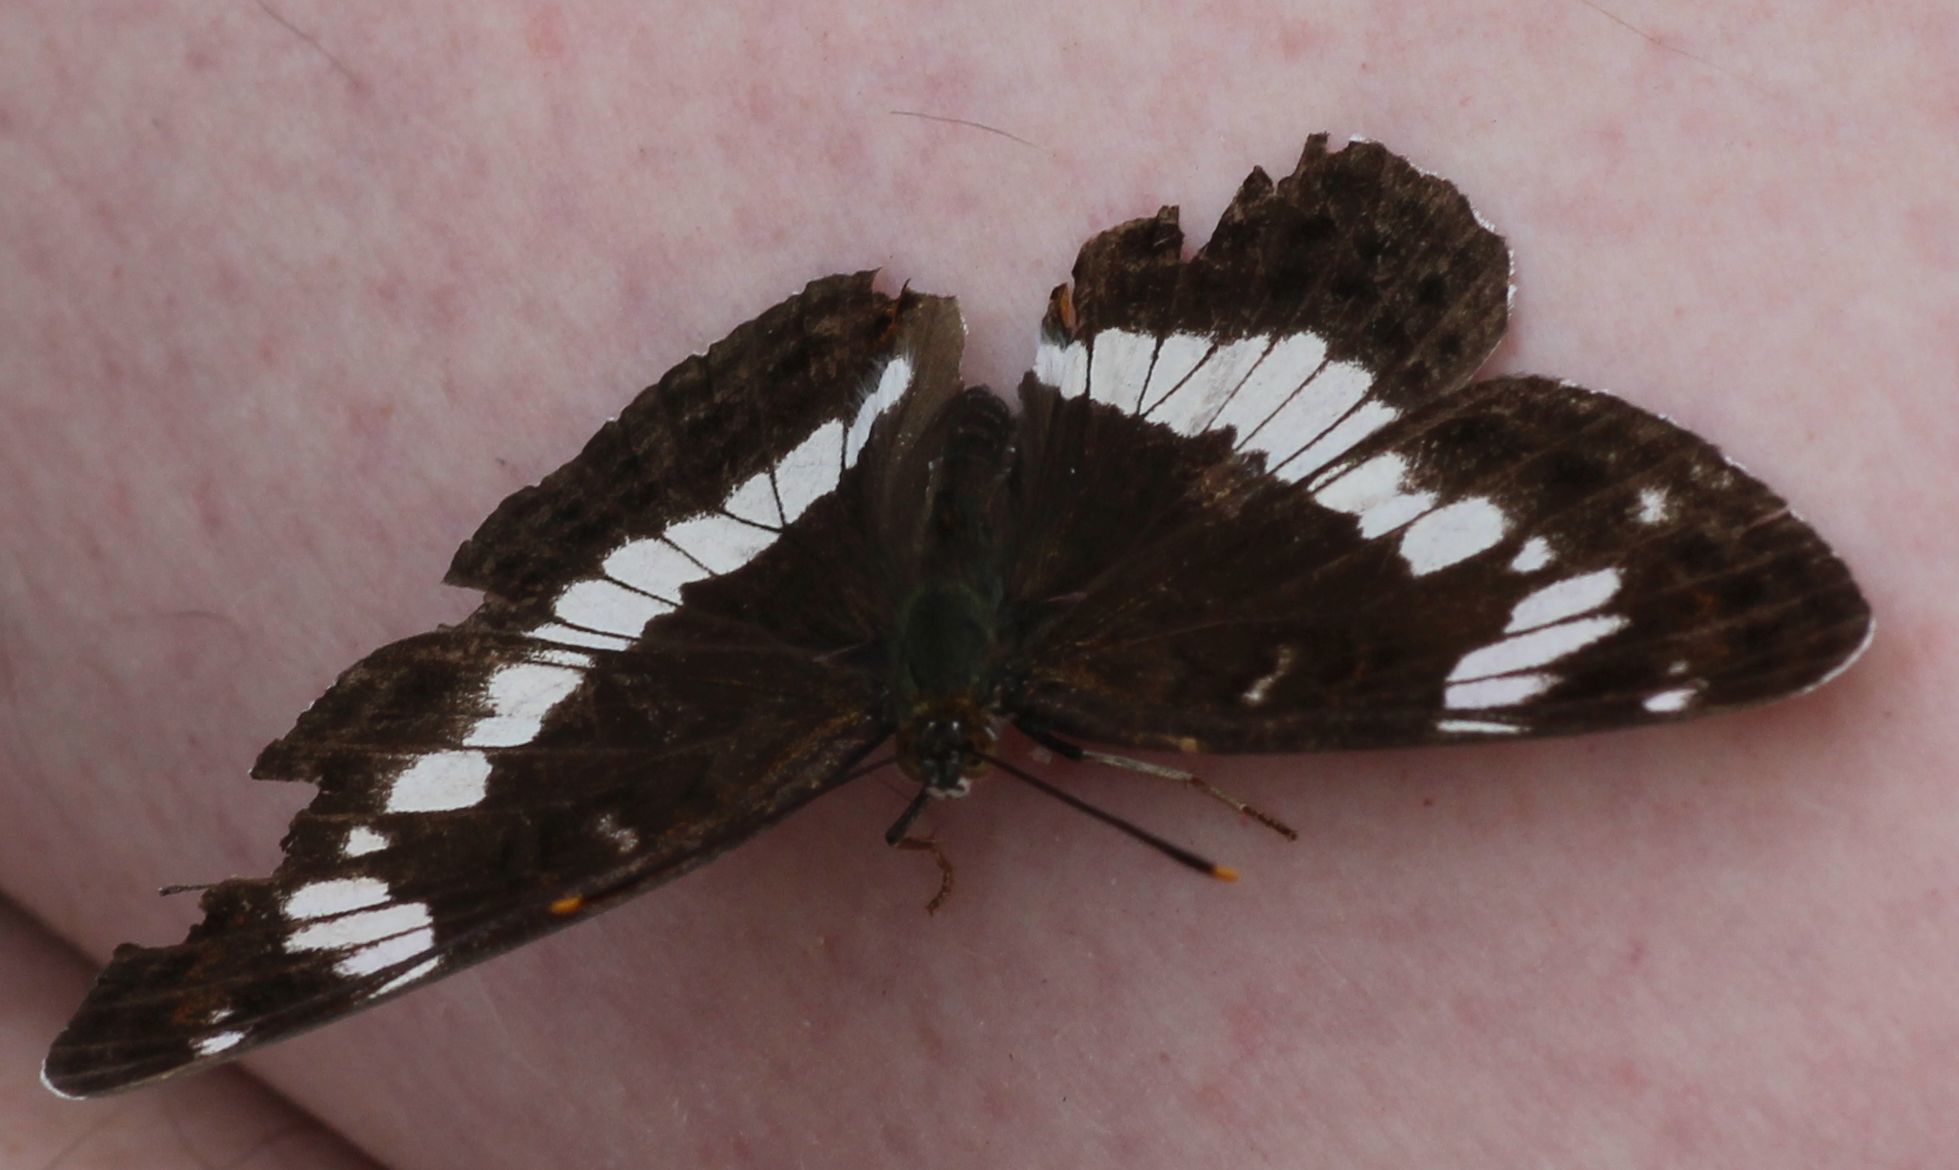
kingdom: Animalia
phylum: Arthropoda
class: Insecta
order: Lepidoptera
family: Nymphalidae
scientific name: Nymphalidae
